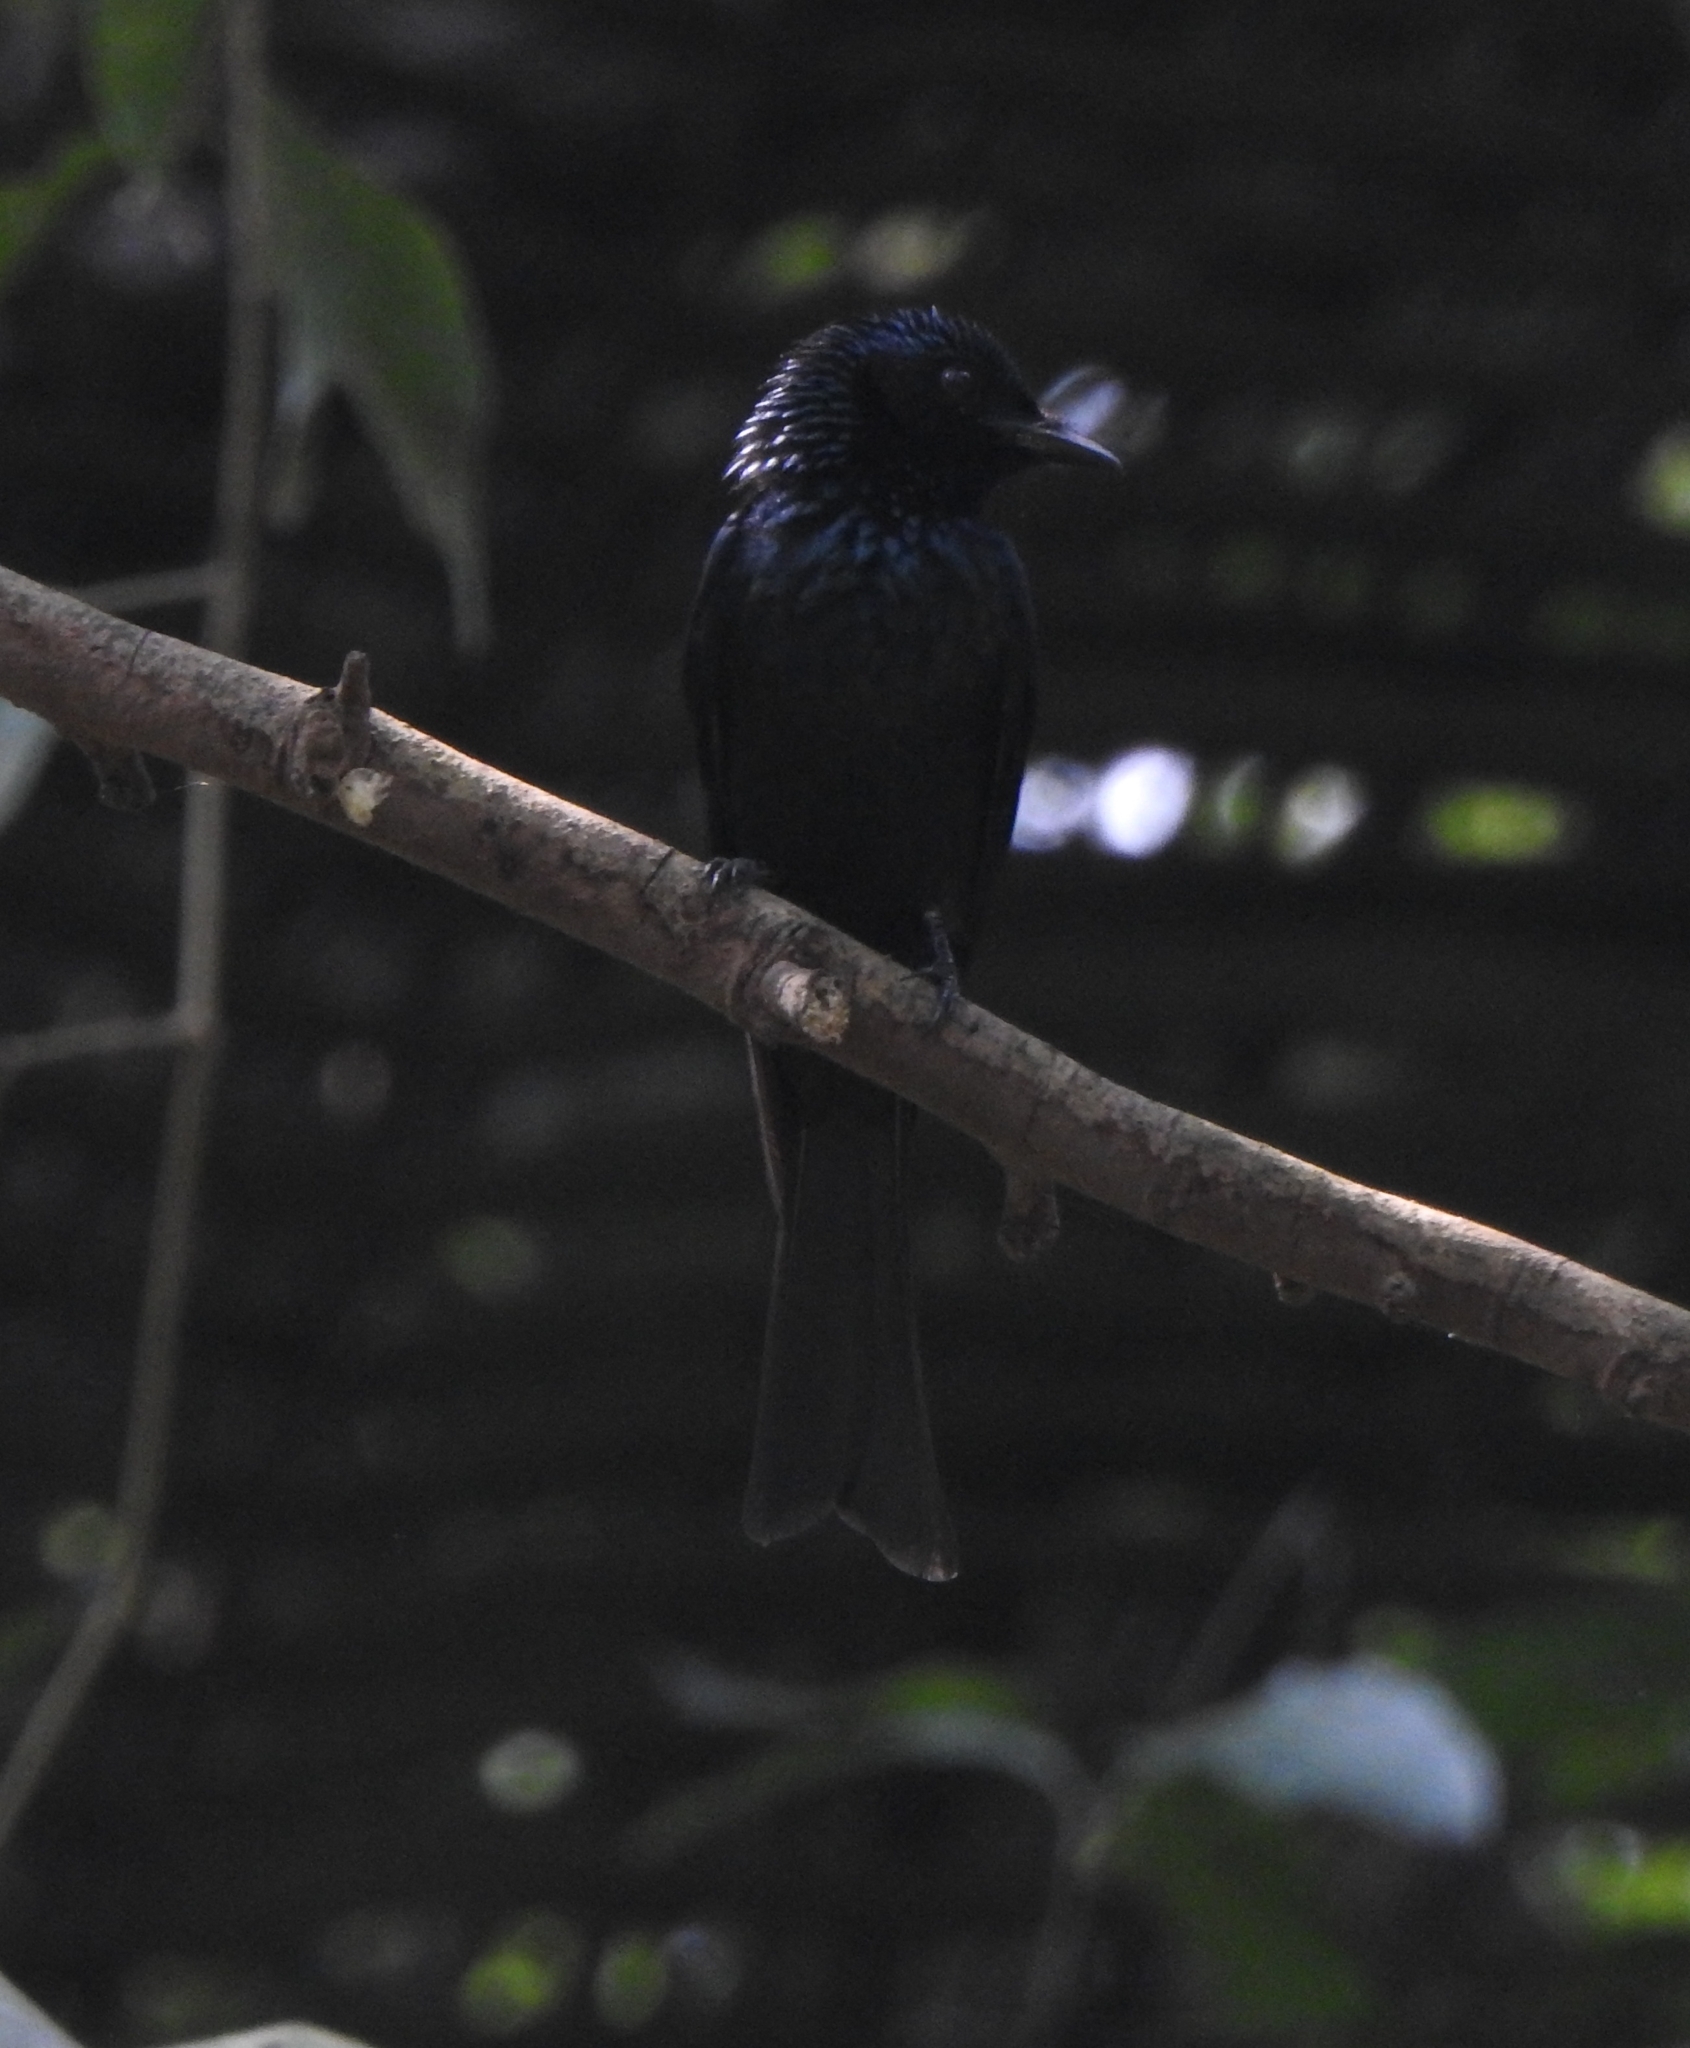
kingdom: Animalia
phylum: Chordata
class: Aves
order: Passeriformes
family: Dicruridae
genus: Dicrurus
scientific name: Dicrurus aeneus
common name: Bronzed drongo
